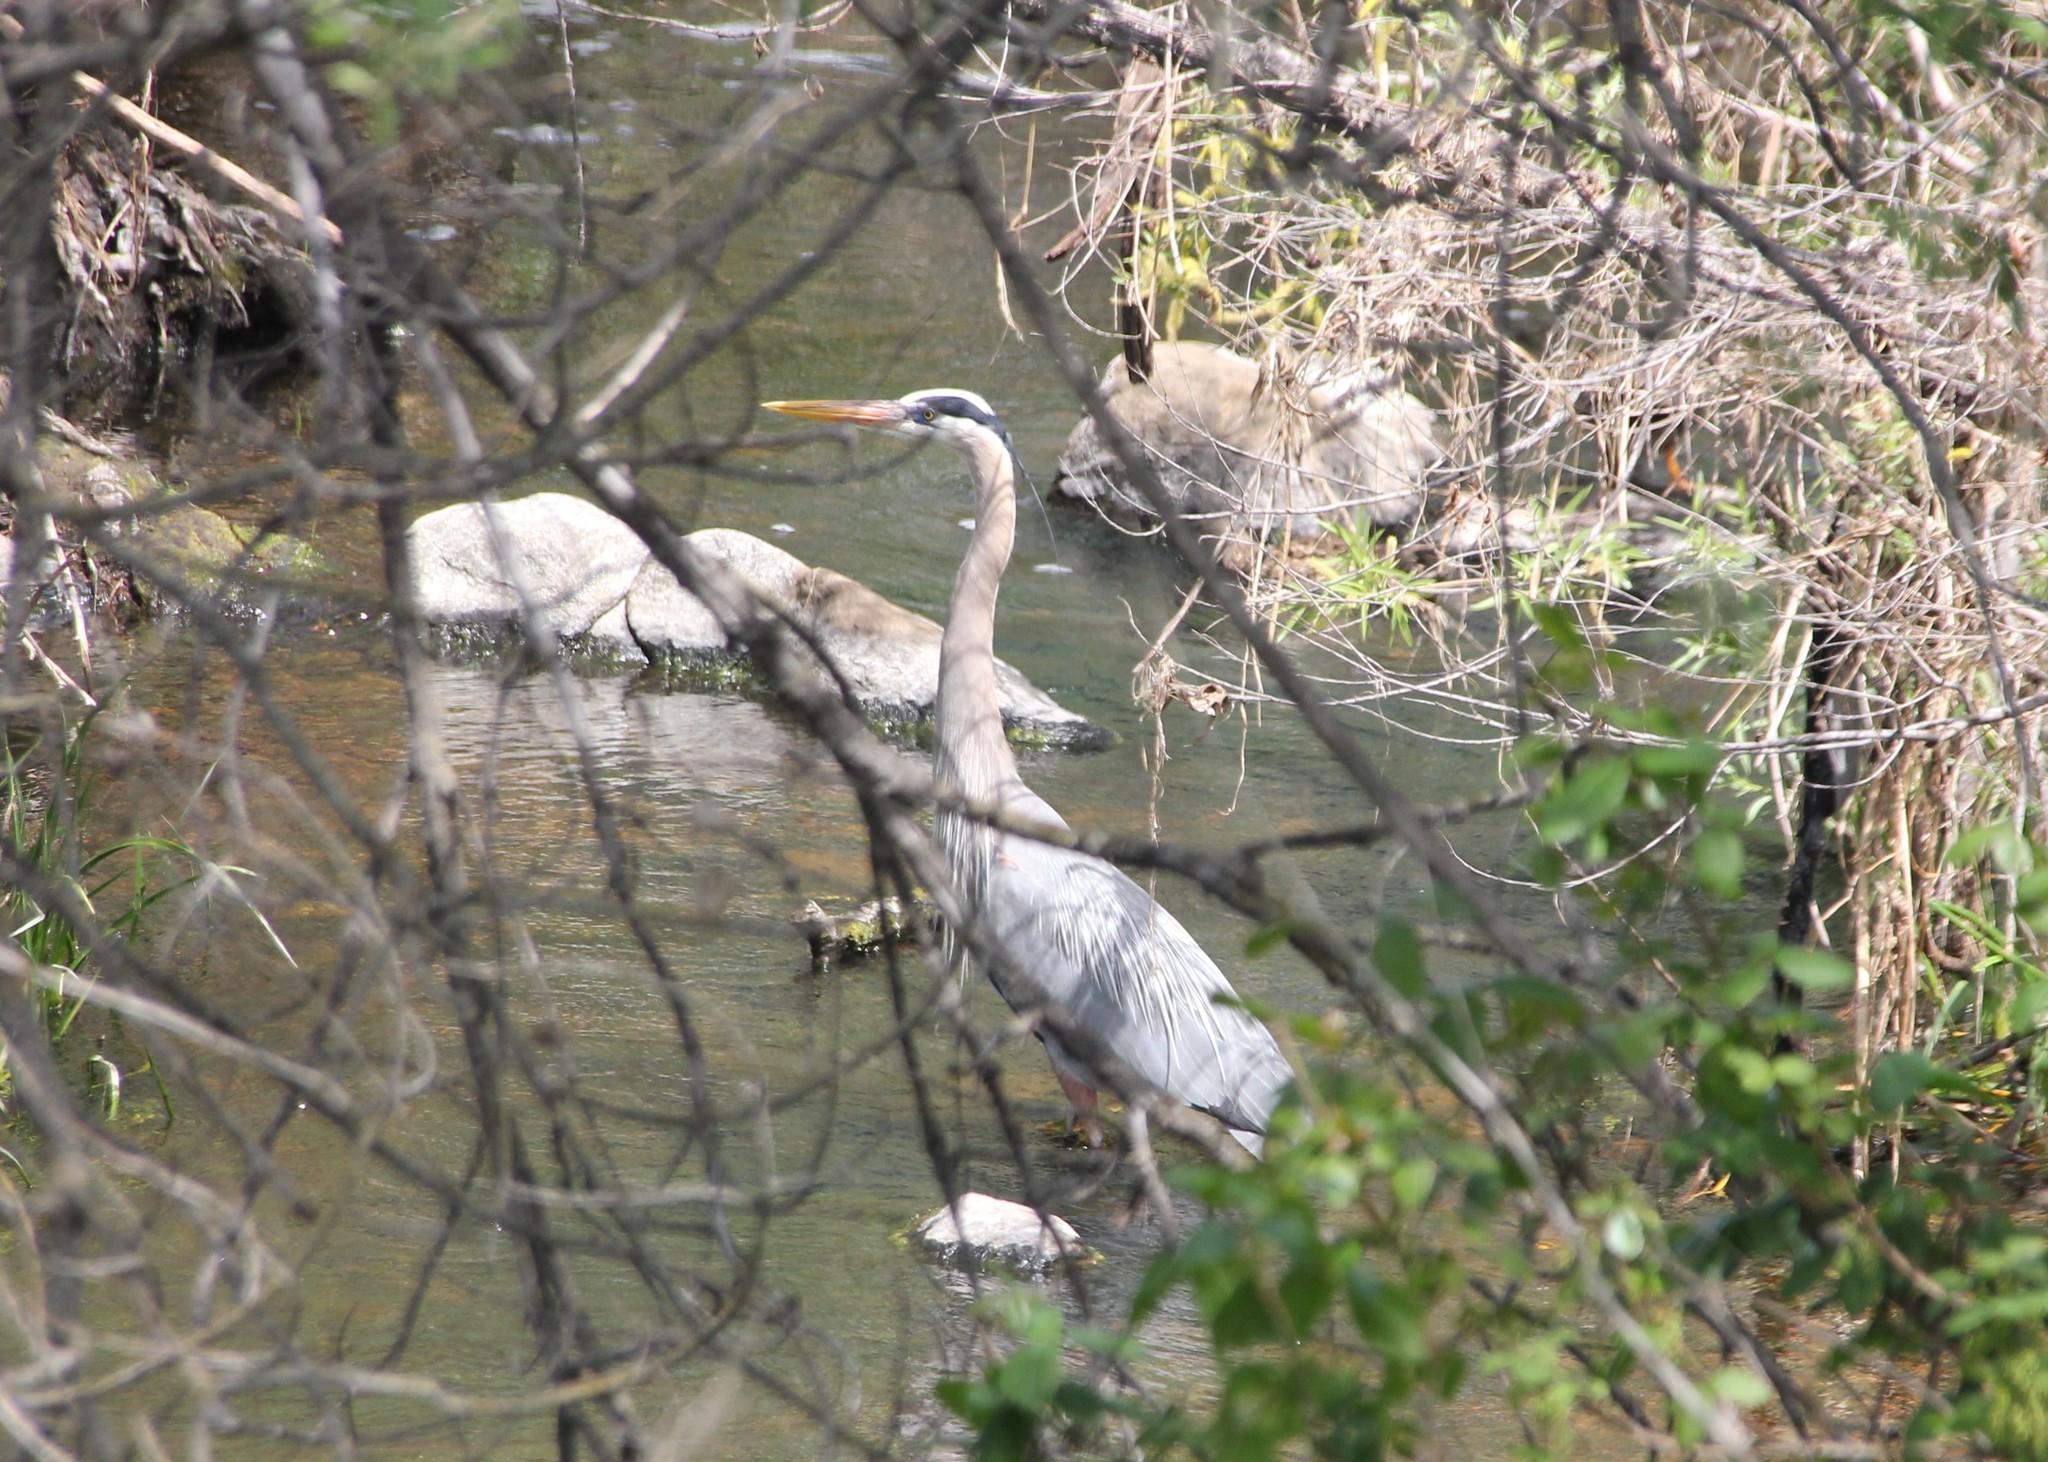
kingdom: Animalia
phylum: Chordata
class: Aves
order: Pelecaniformes
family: Ardeidae
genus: Ardea
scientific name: Ardea herodias
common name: Great blue heron
